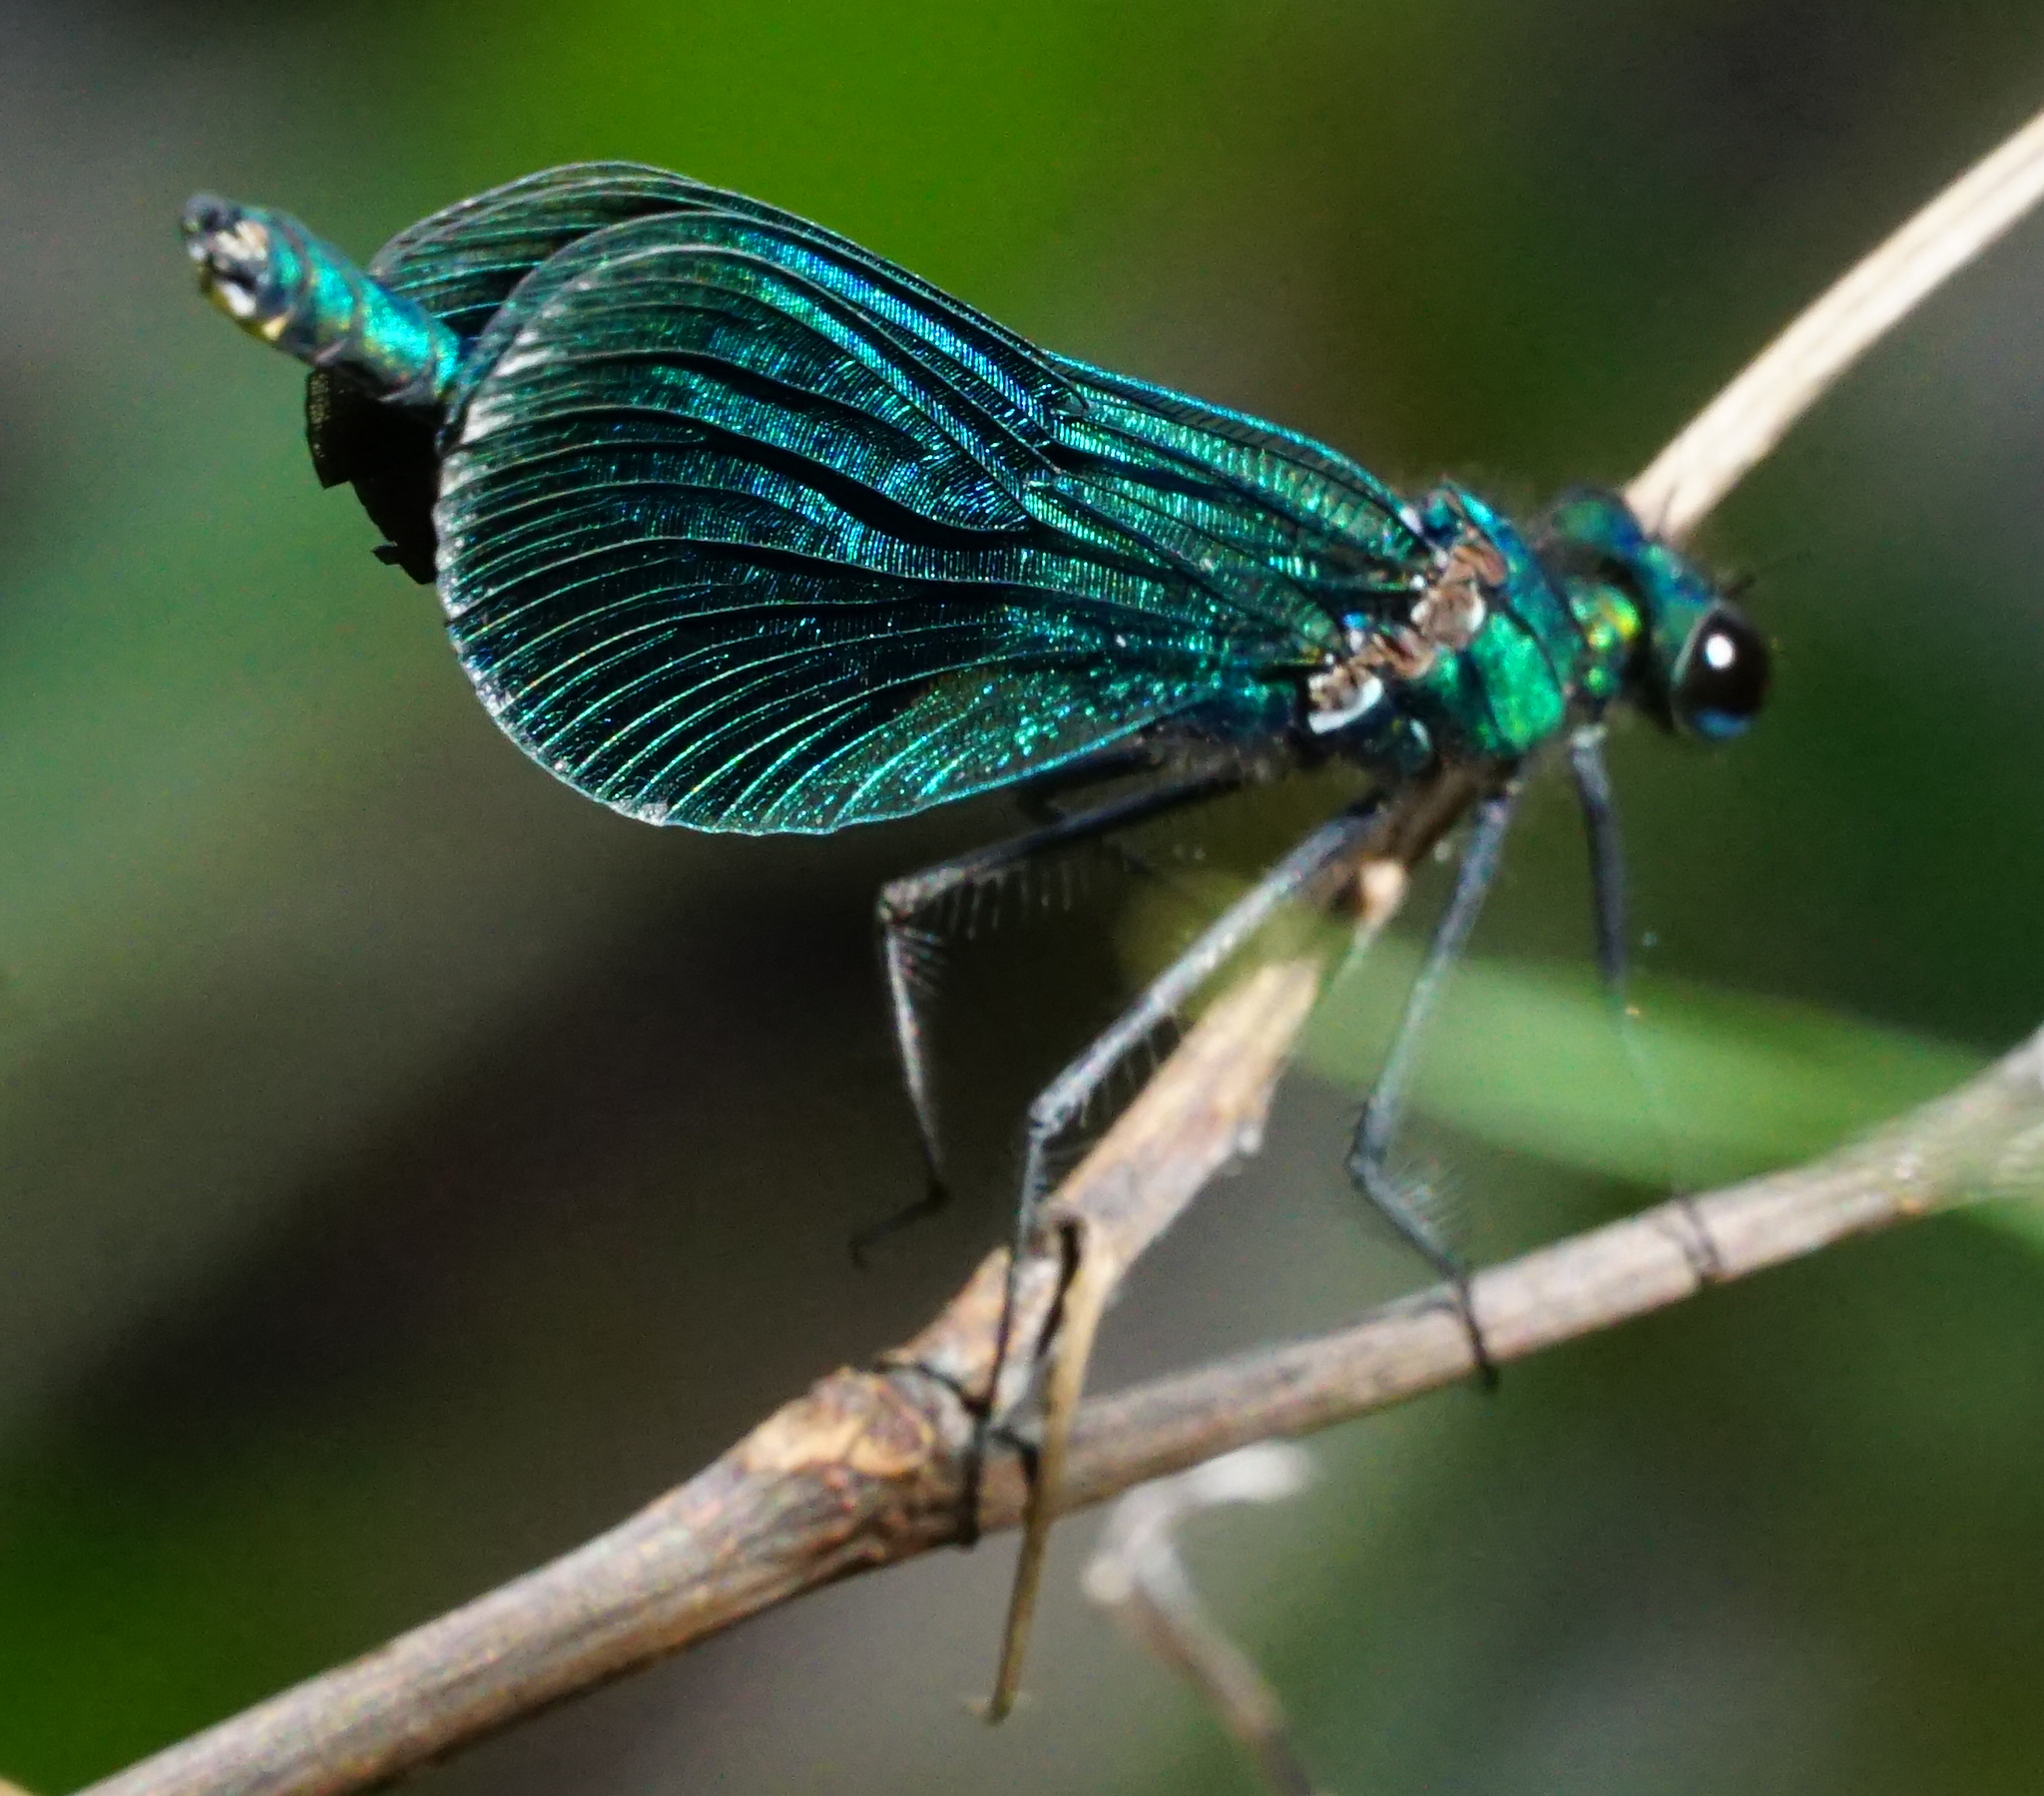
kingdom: Animalia
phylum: Arthropoda
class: Insecta
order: Odonata
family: Calopterygidae
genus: Calopteryx
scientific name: Calopteryx virgo
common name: Beautiful demoiselle
